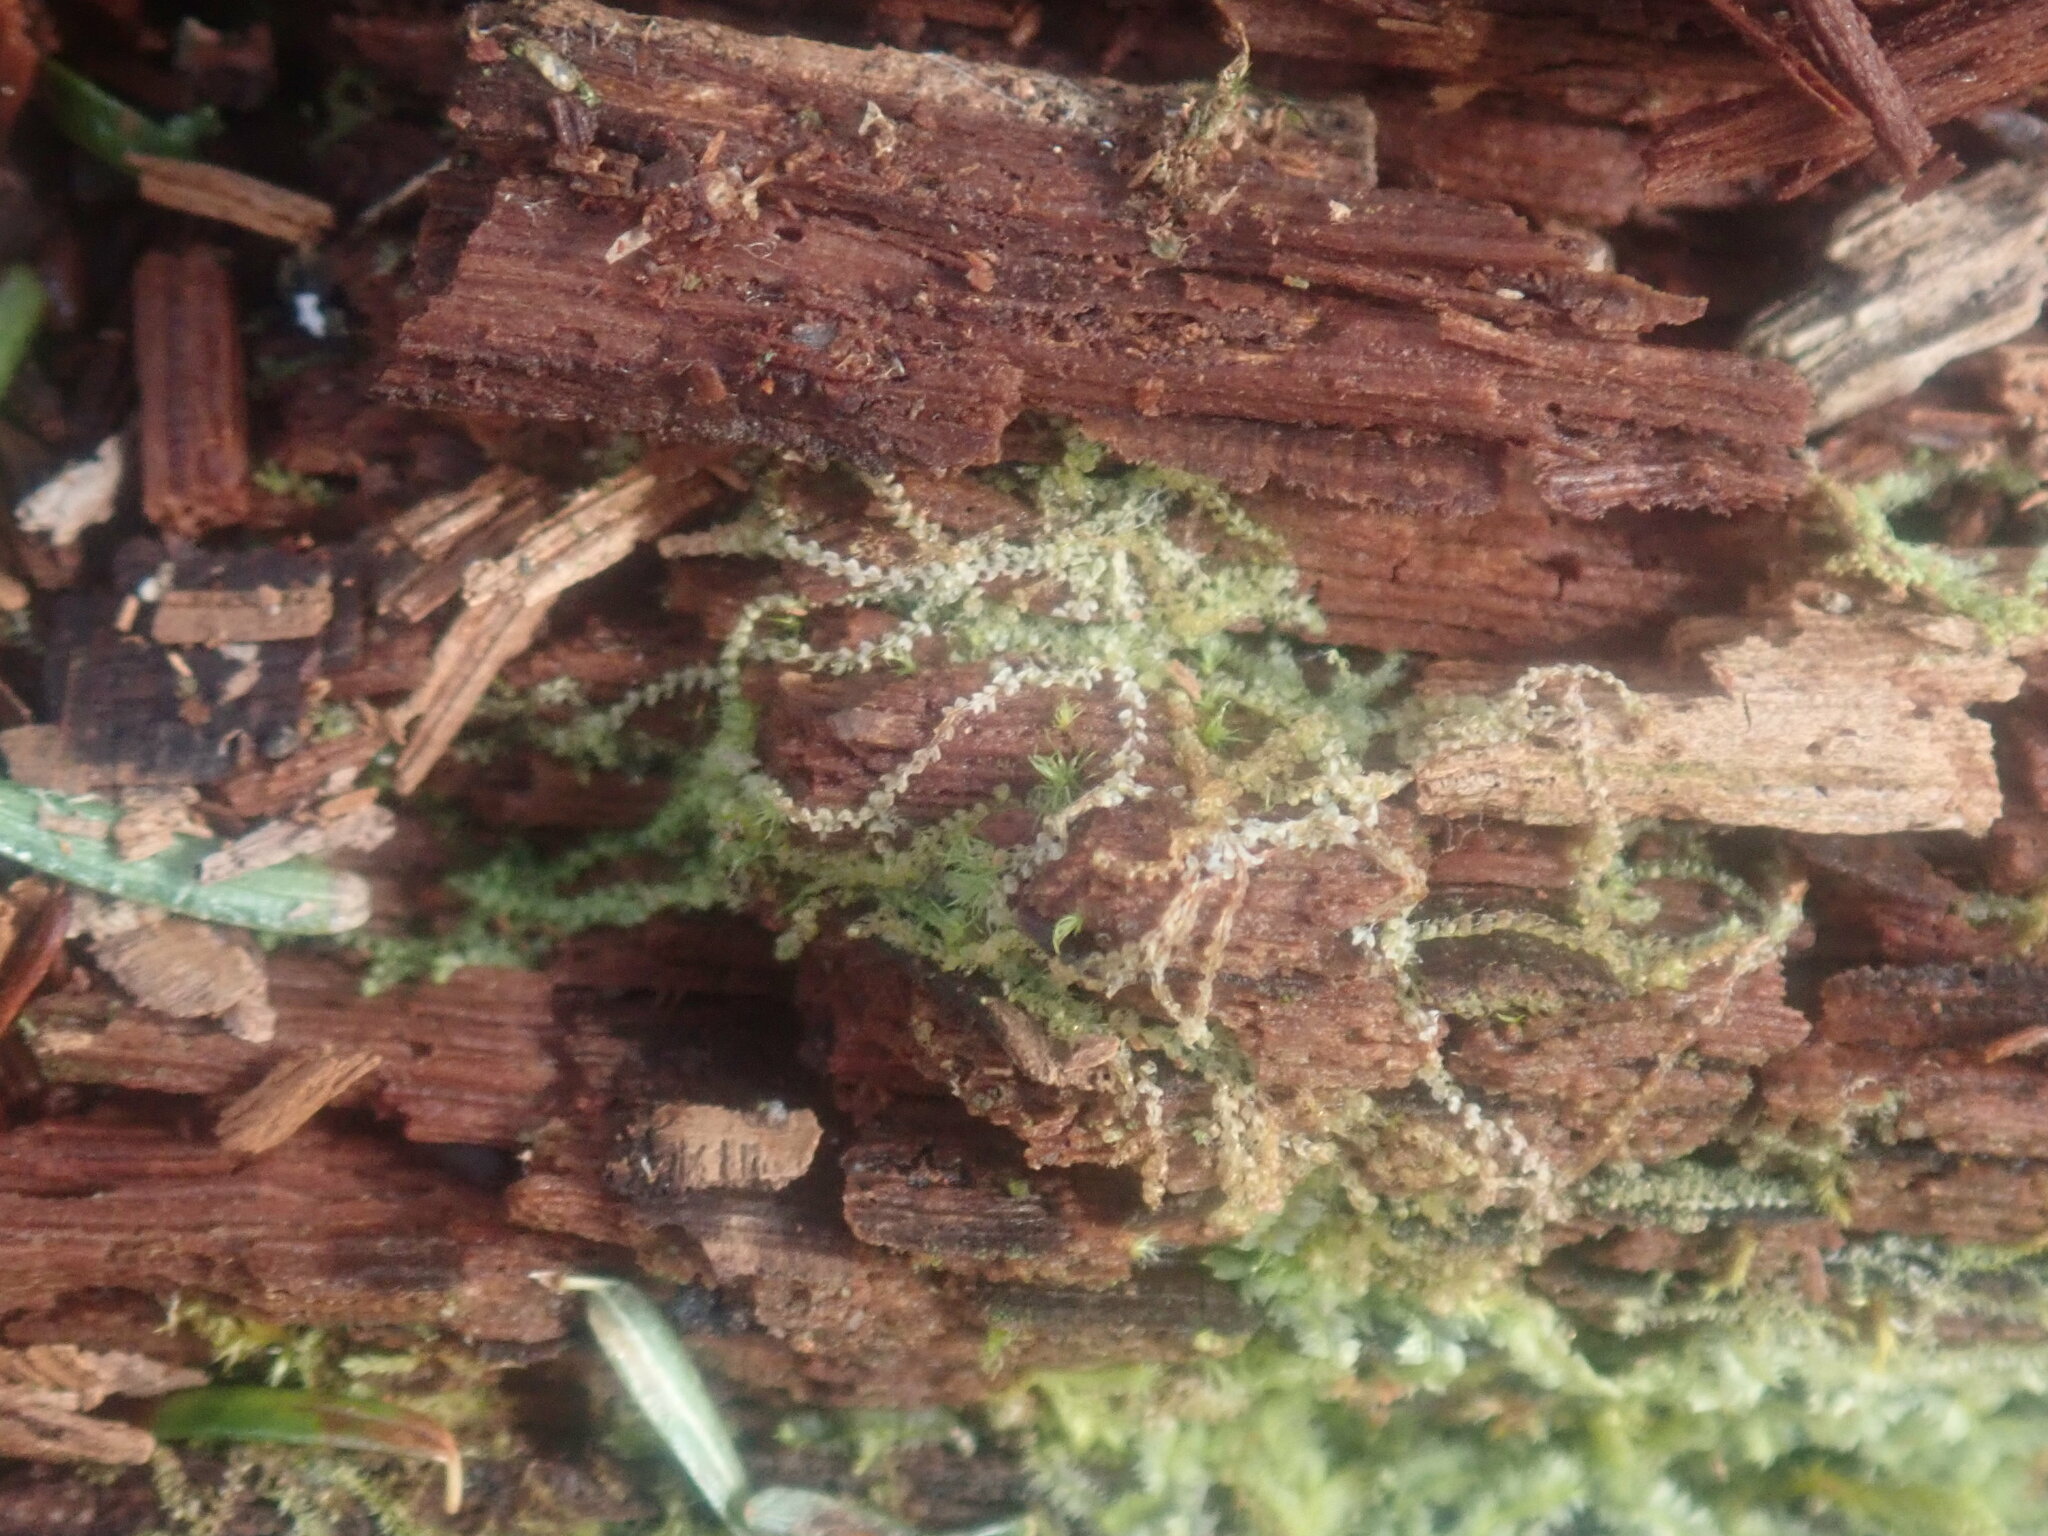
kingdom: Plantae
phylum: Marchantiophyta
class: Jungermanniopsida
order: Jungermanniales
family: Cephaloziaceae
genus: Nowellia
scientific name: Nowellia curvifolia
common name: Wood rustwort
